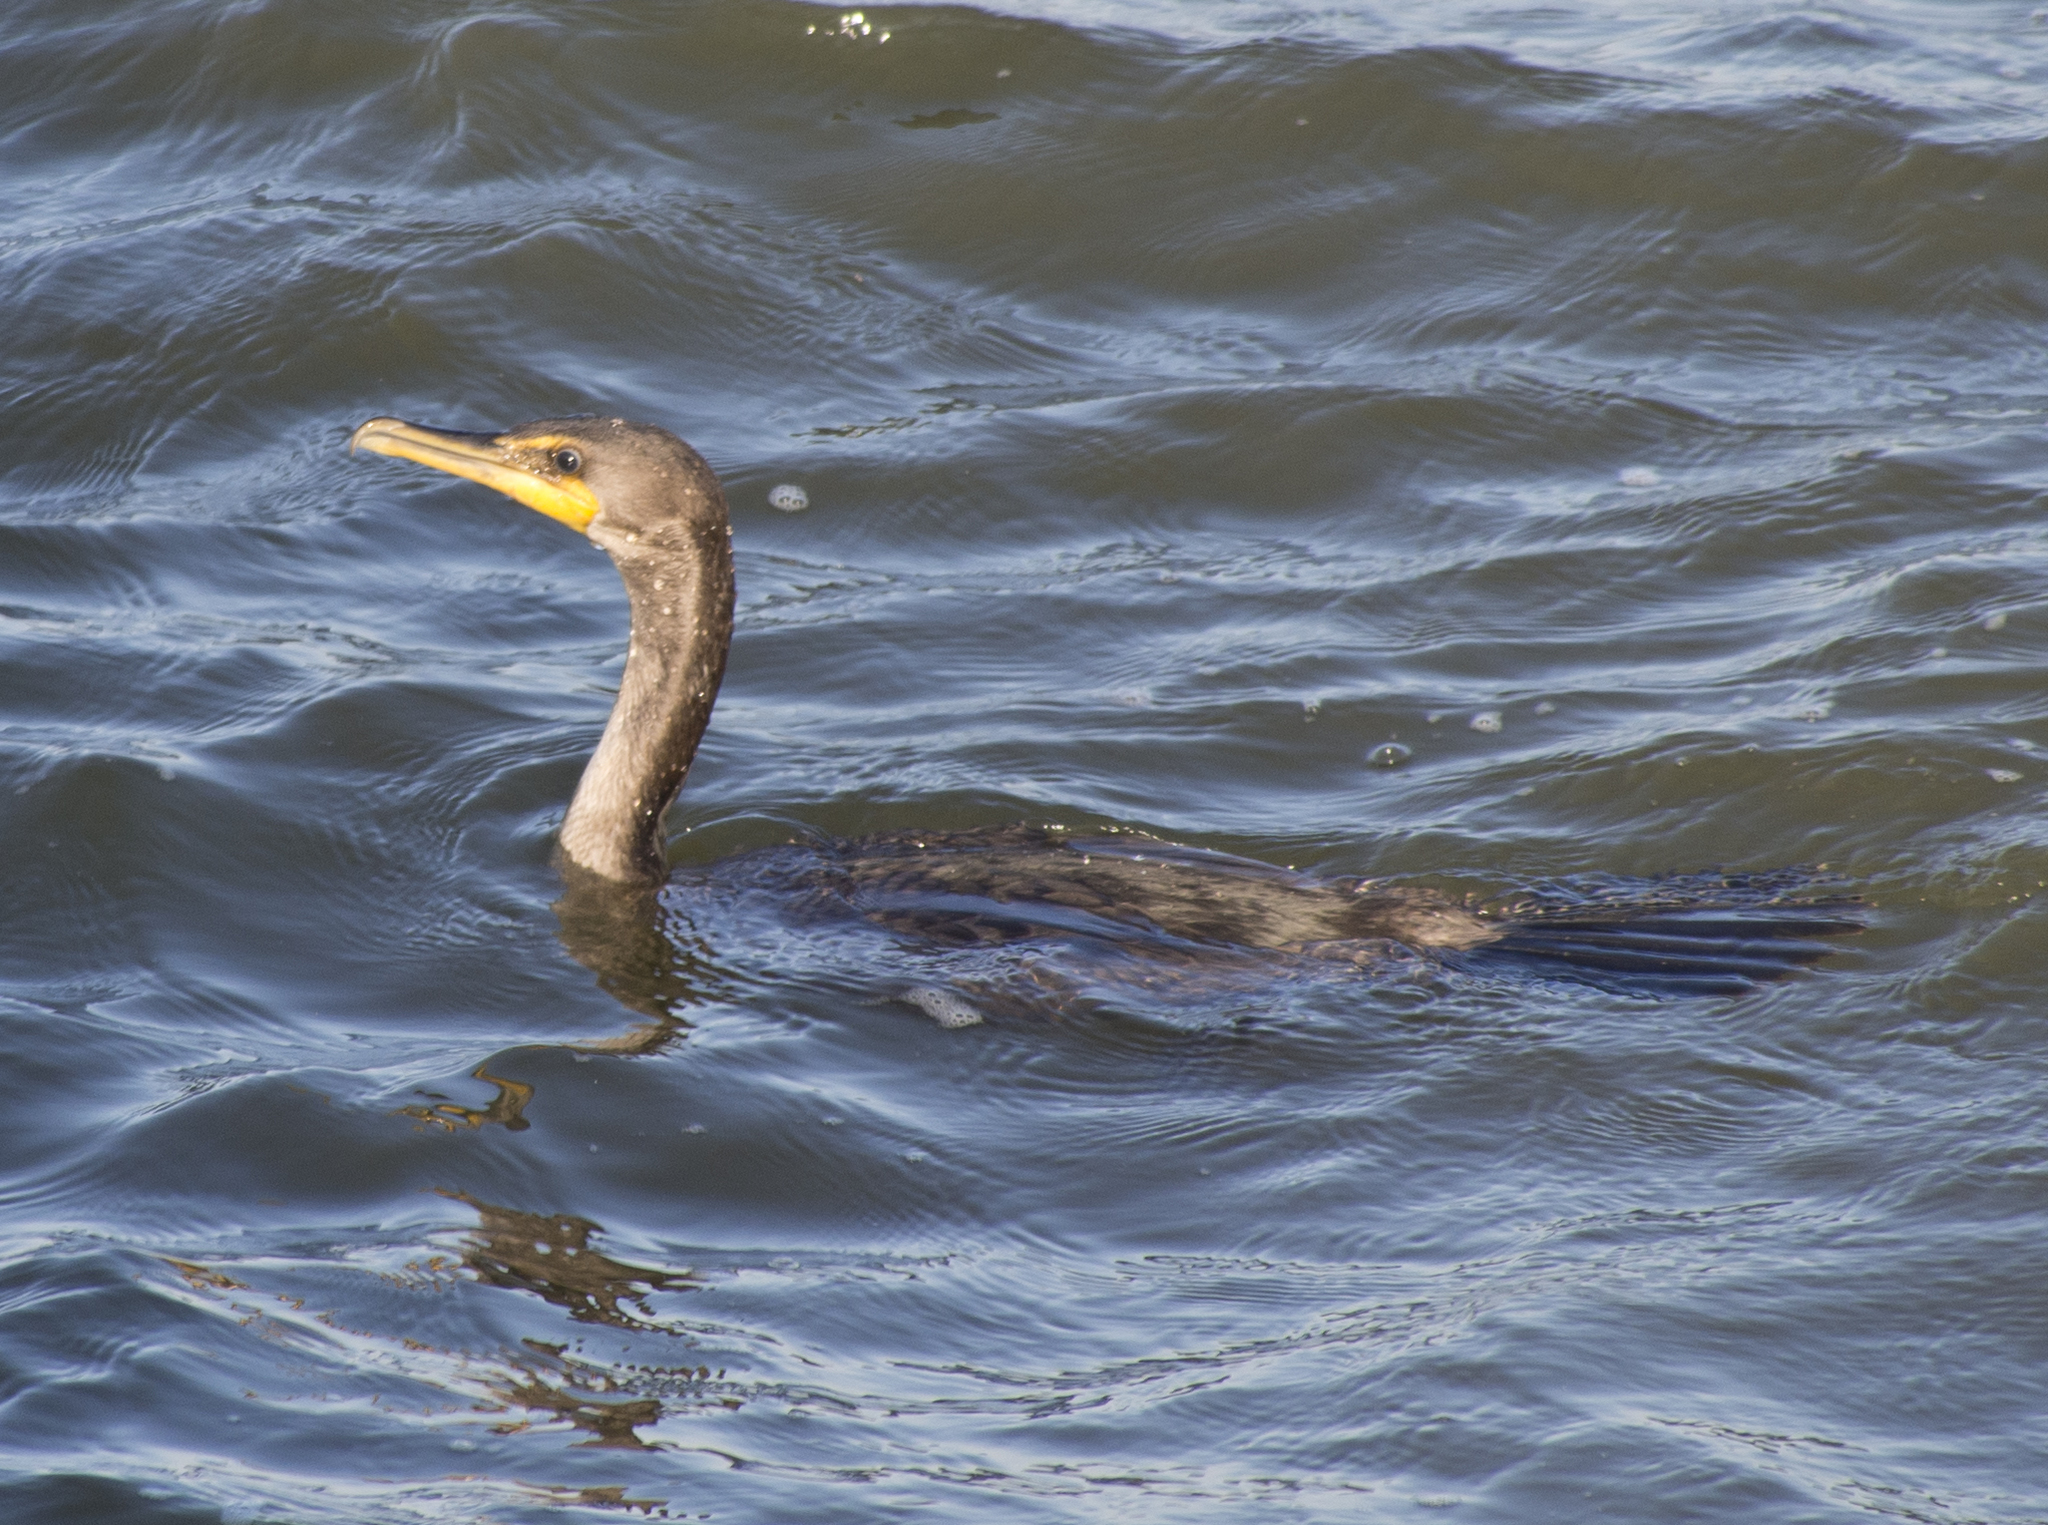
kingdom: Animalia
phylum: Chordata
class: Aves
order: Suliformes
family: Phalacrocoracidae
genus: Phalacrocorax
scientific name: Phalacrocorax auritus
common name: Double-crested cormorant
